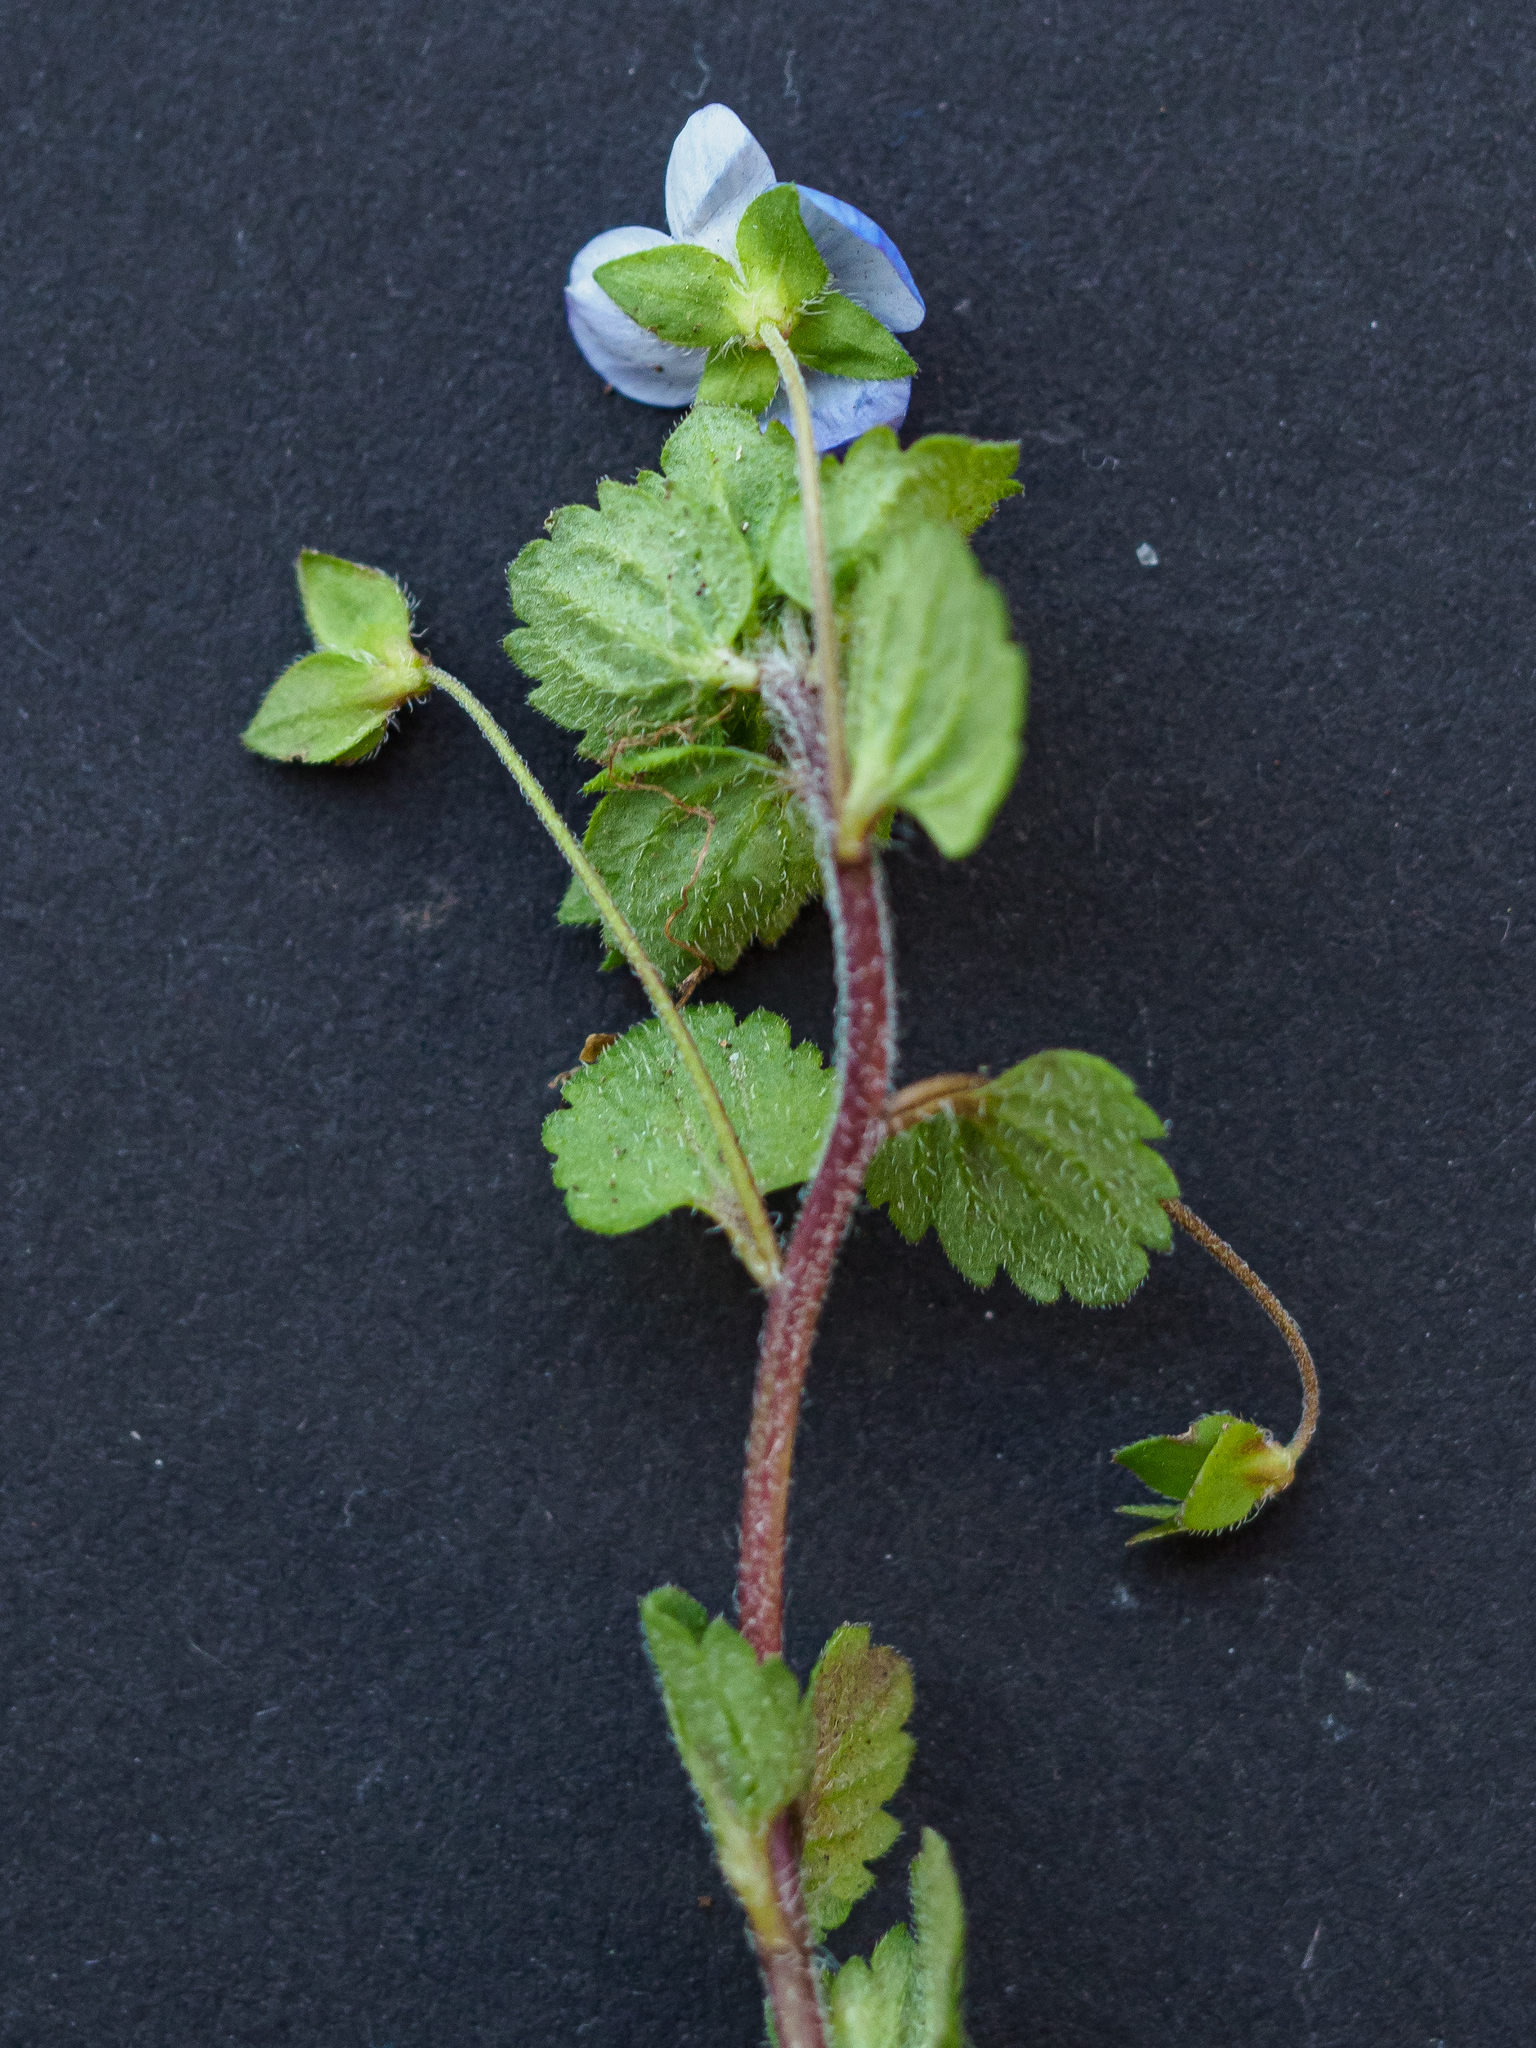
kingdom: Plantae
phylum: Tracheophyta
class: Magnoliopsida
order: Lamiales
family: Plantaginaceae
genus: Veronica
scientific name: Veronica persica
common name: Common field-speedwell
